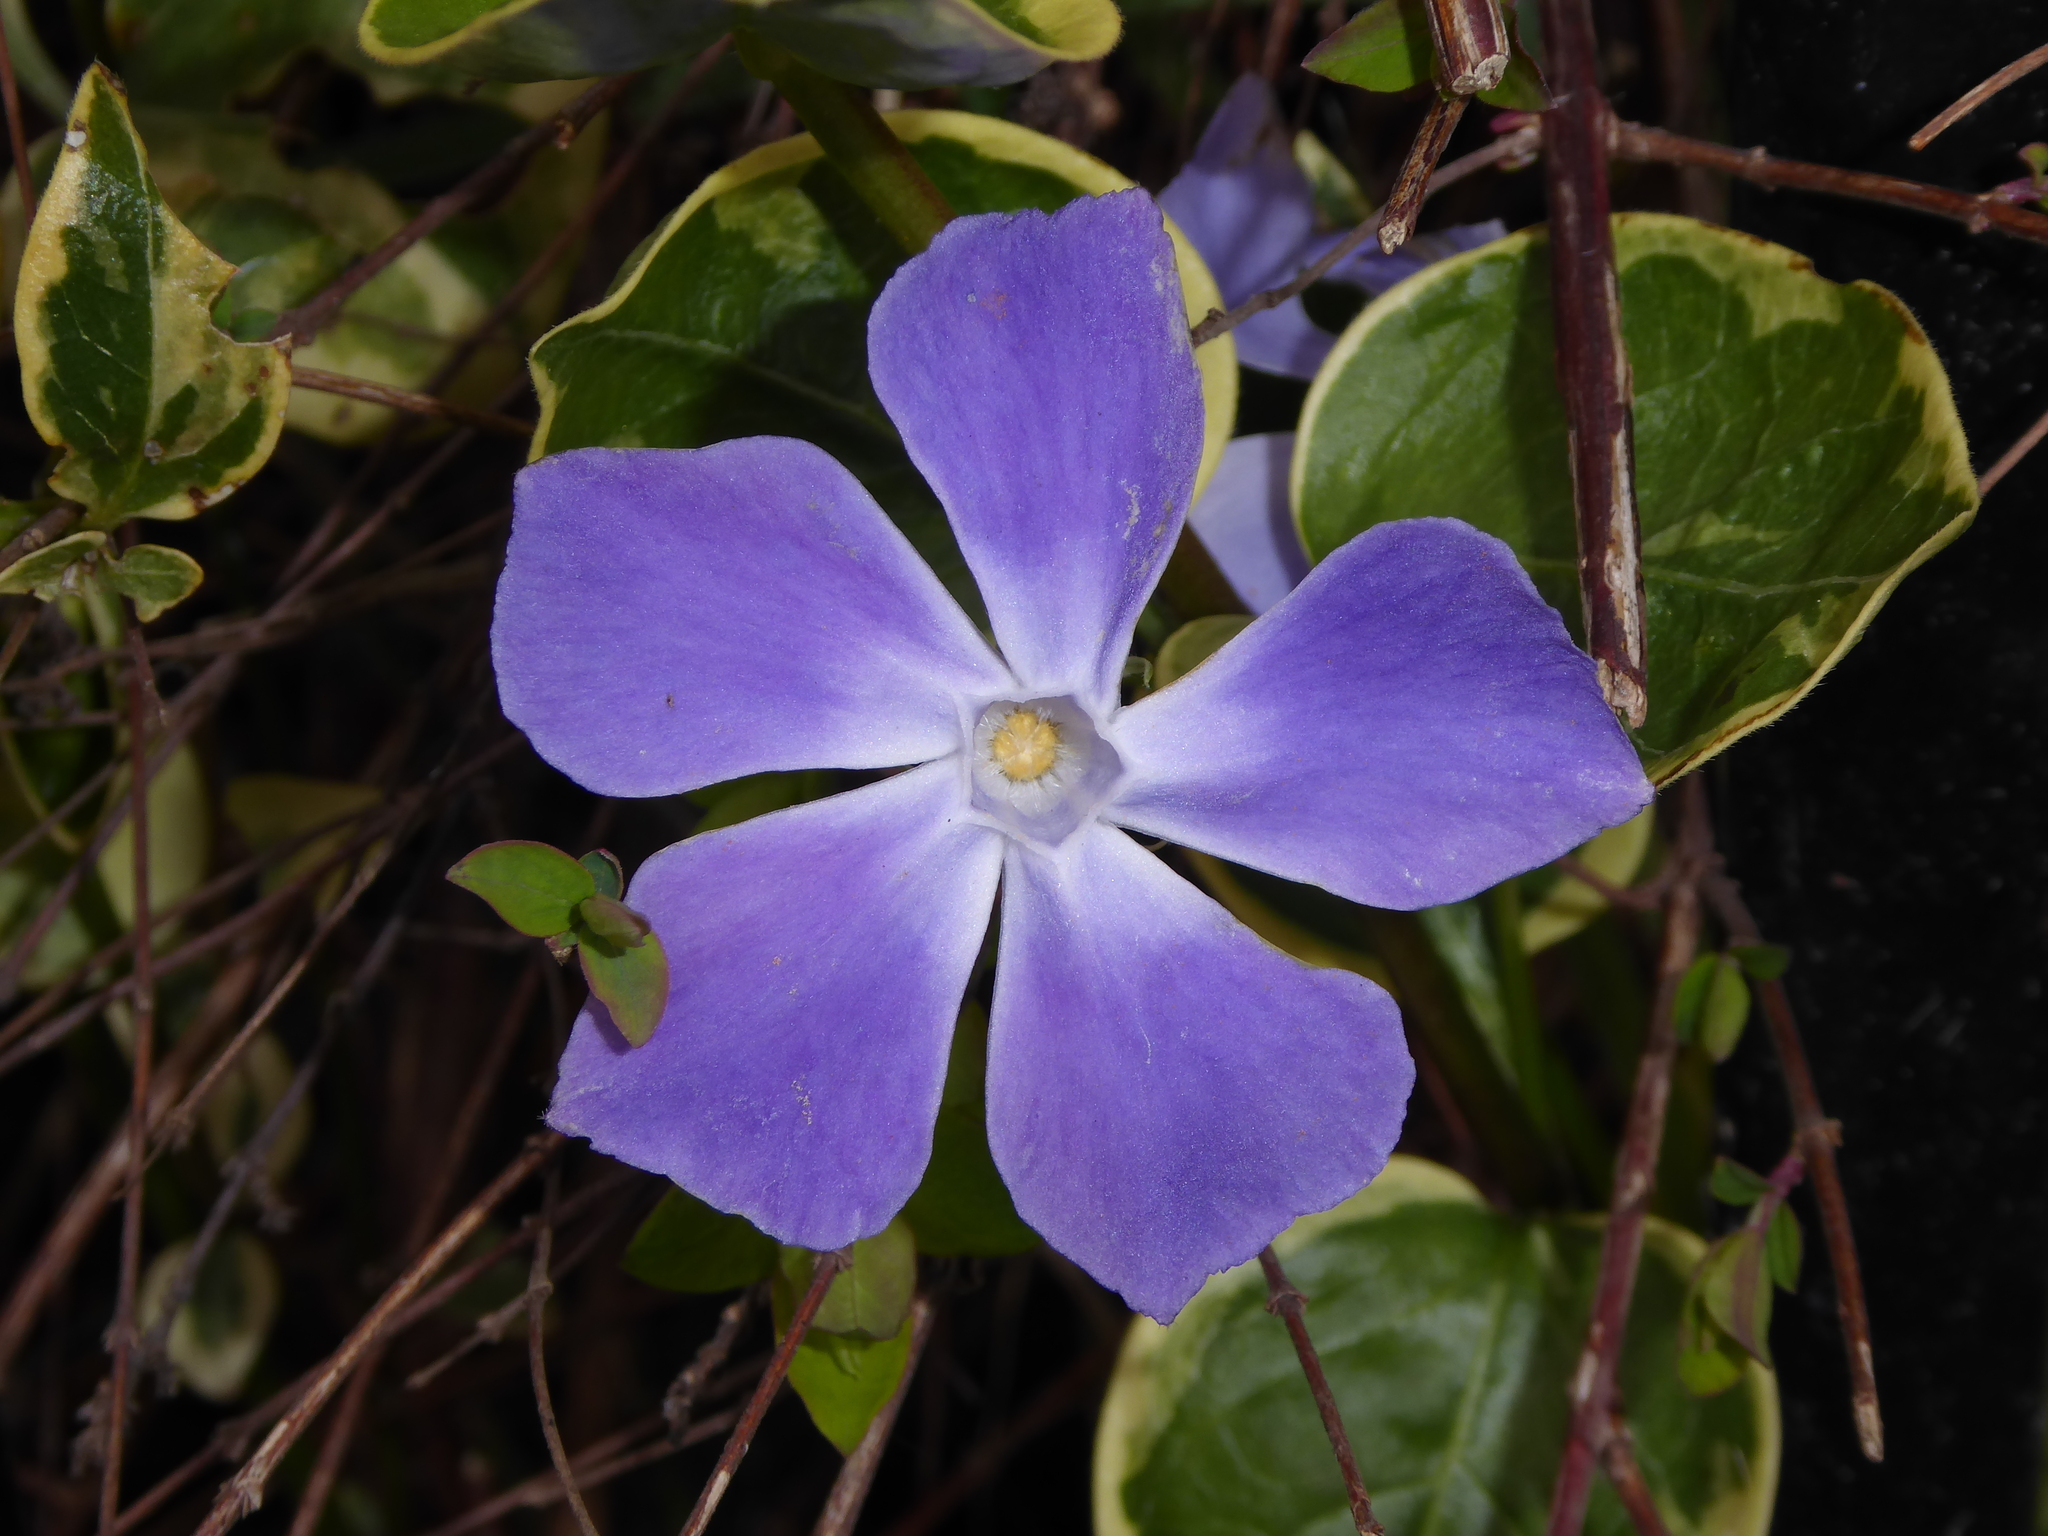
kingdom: Plantae
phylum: Tracheophyta
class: Magnoliopsida
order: Gentianales
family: Apocynaceae
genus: Vinca
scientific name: Vinca major
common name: Greater periwinkle
